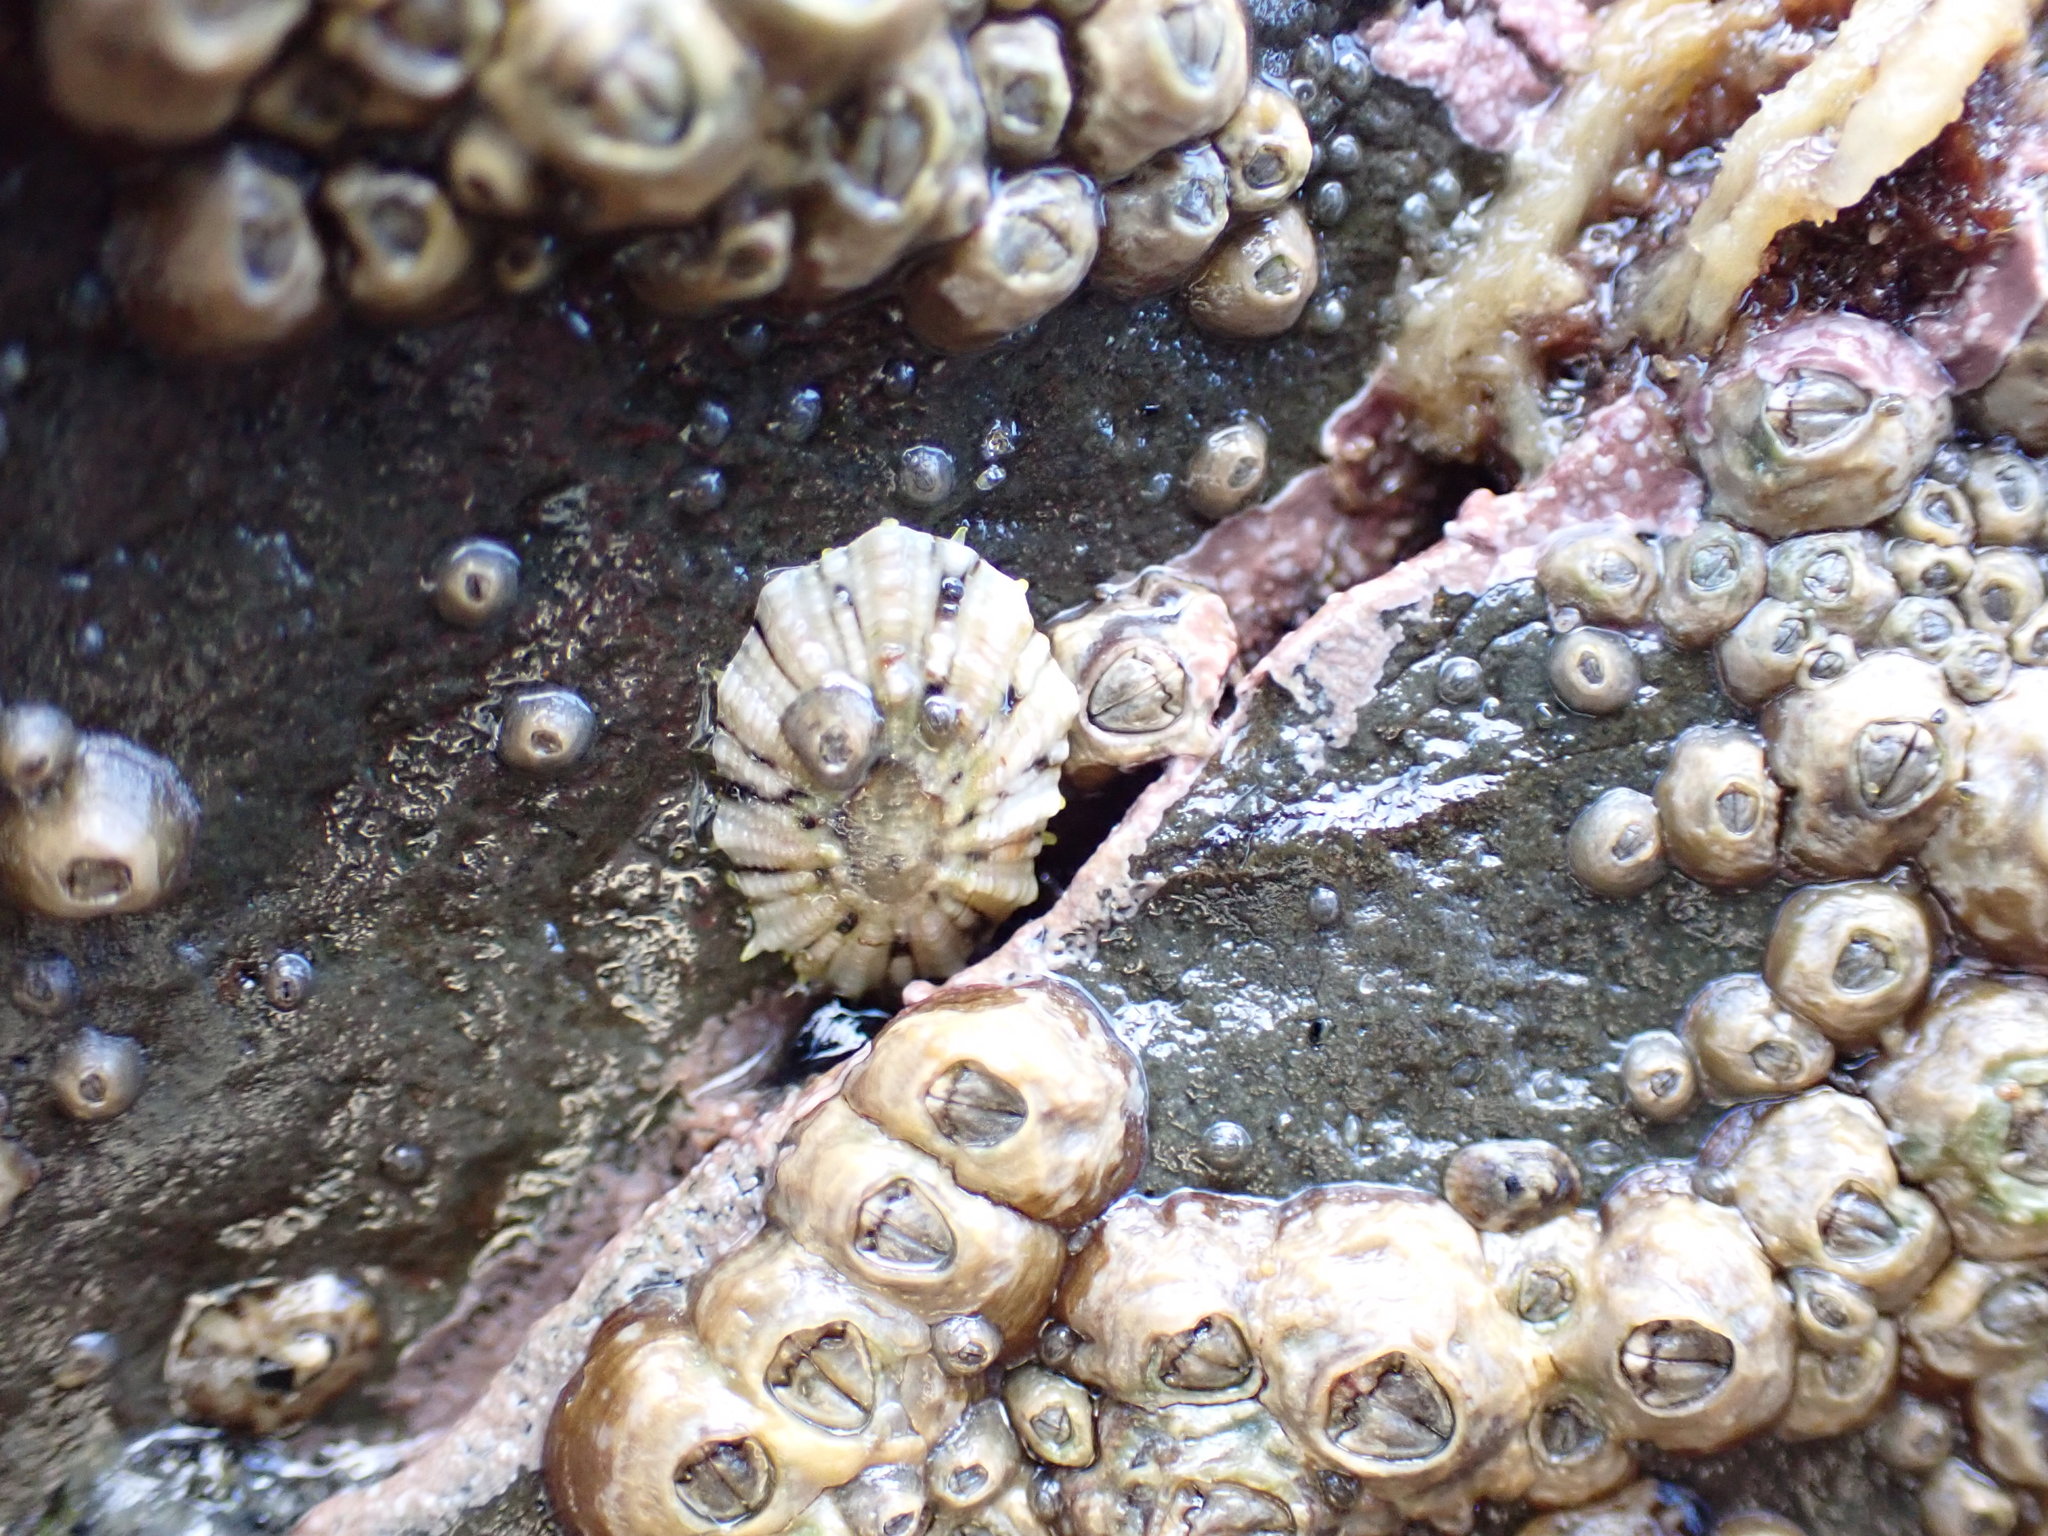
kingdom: Animalia
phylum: Mollusca
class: Gastropoda
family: Nacellidae
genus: Cellana
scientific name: Cellana ornata
